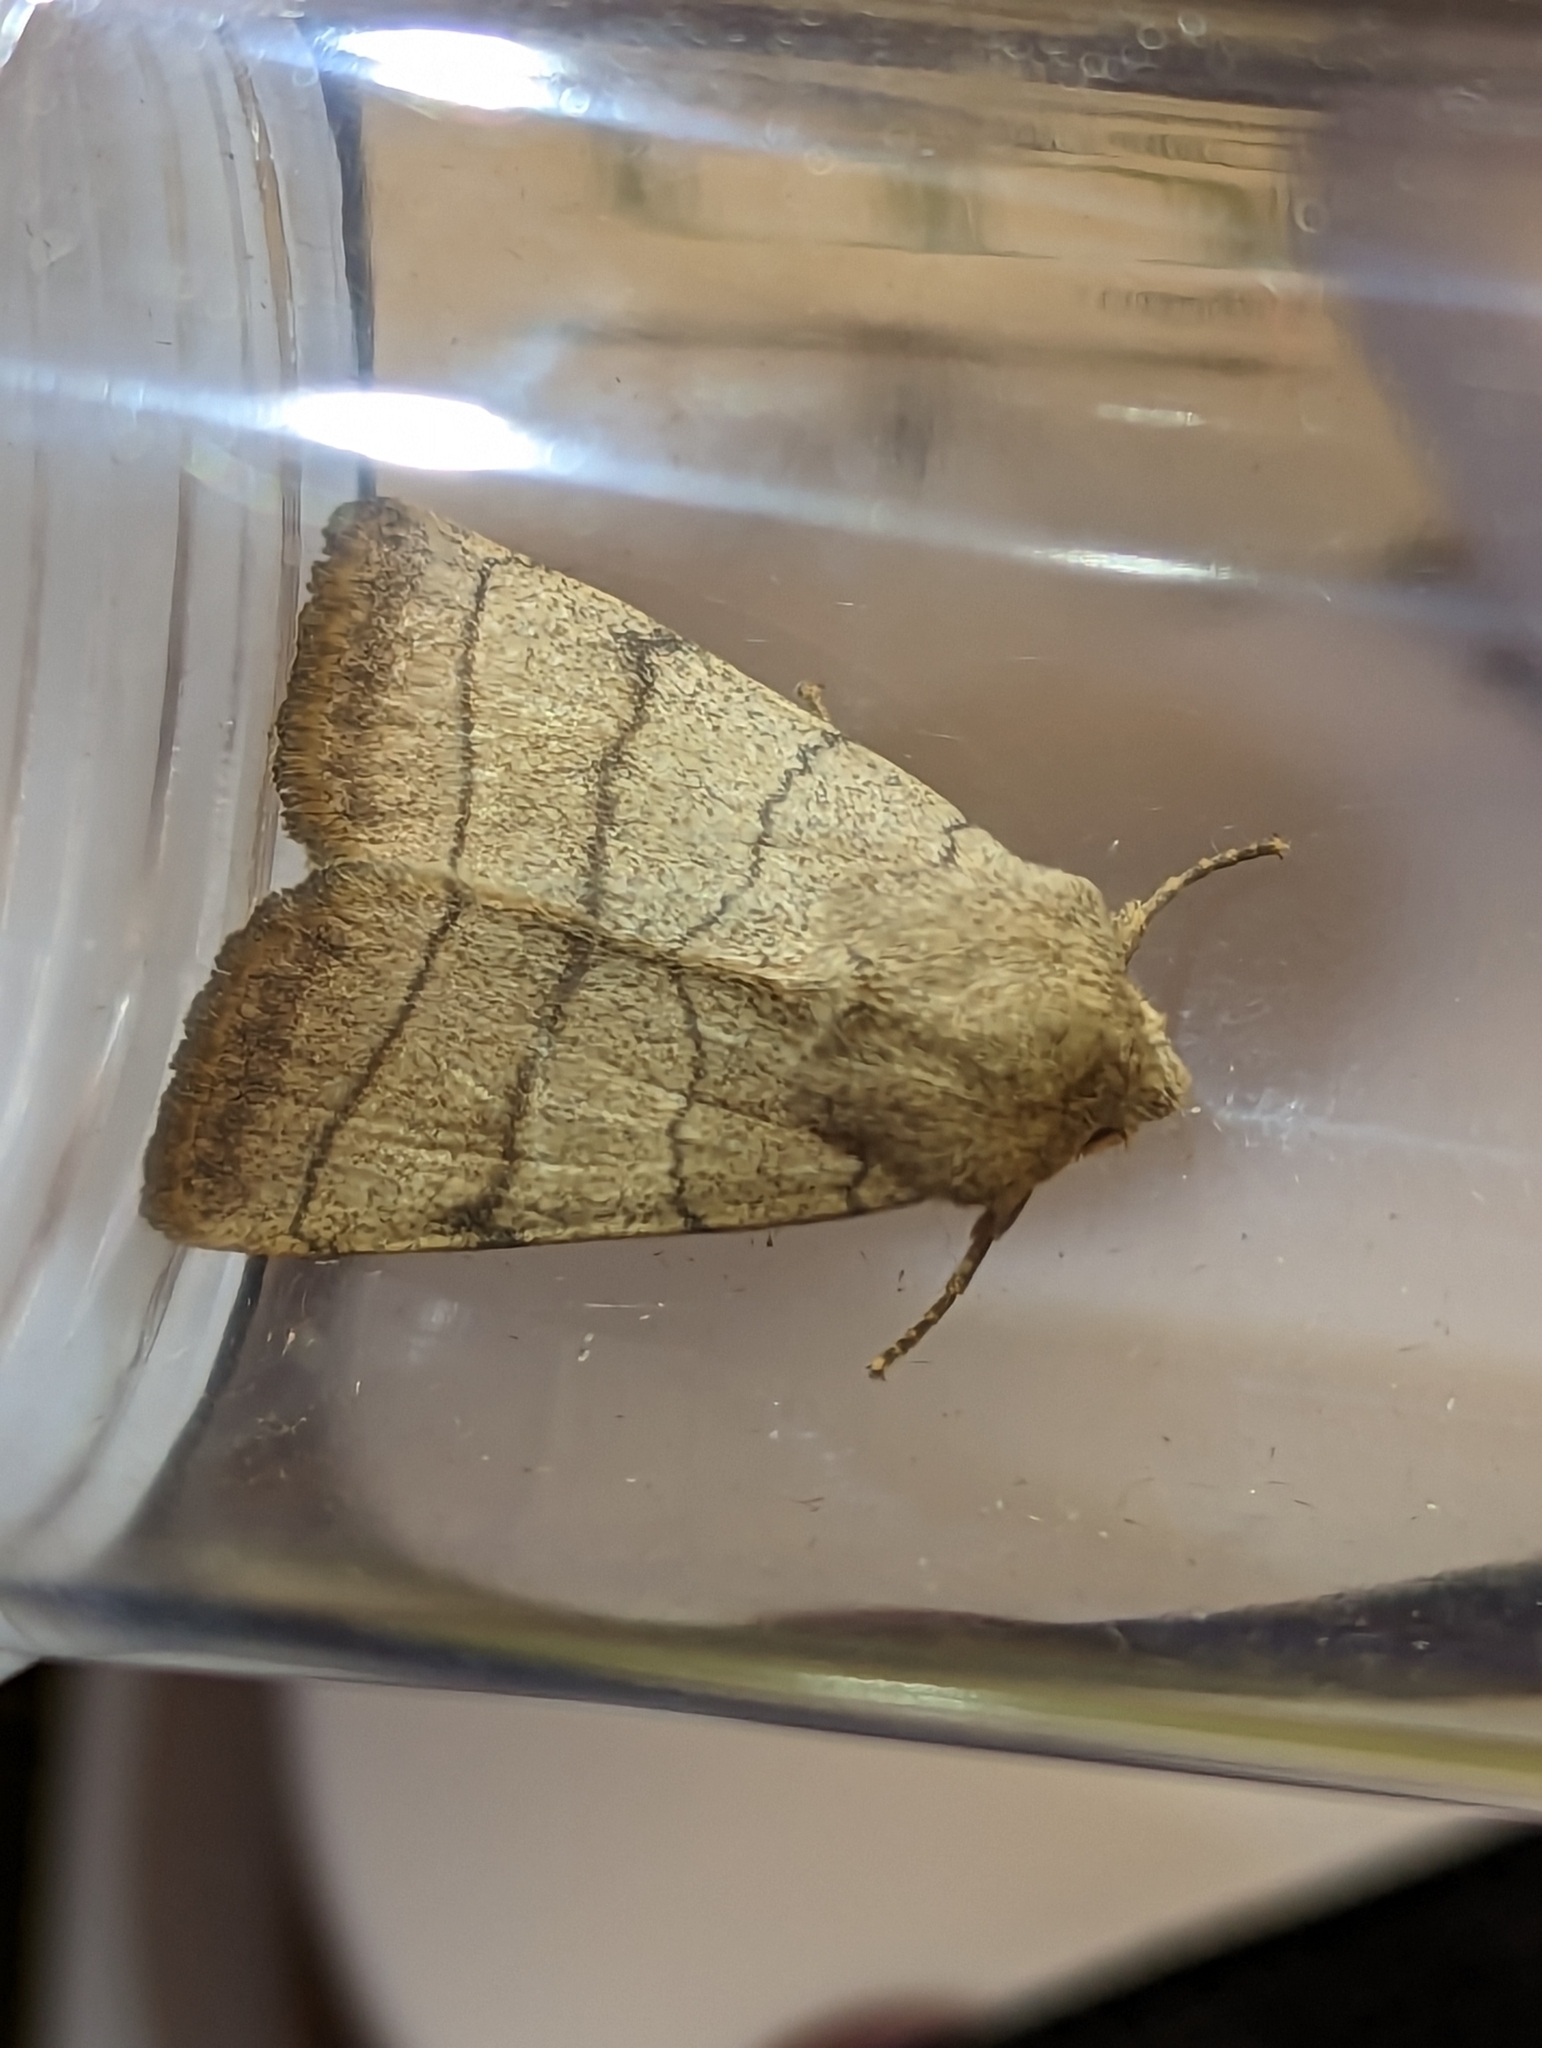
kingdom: Animalia
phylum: Arthropoda
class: Insecta
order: Lepidoptera
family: Noctuidae
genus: Charanyca
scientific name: Charanyca trigrammica
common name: Treble lines
